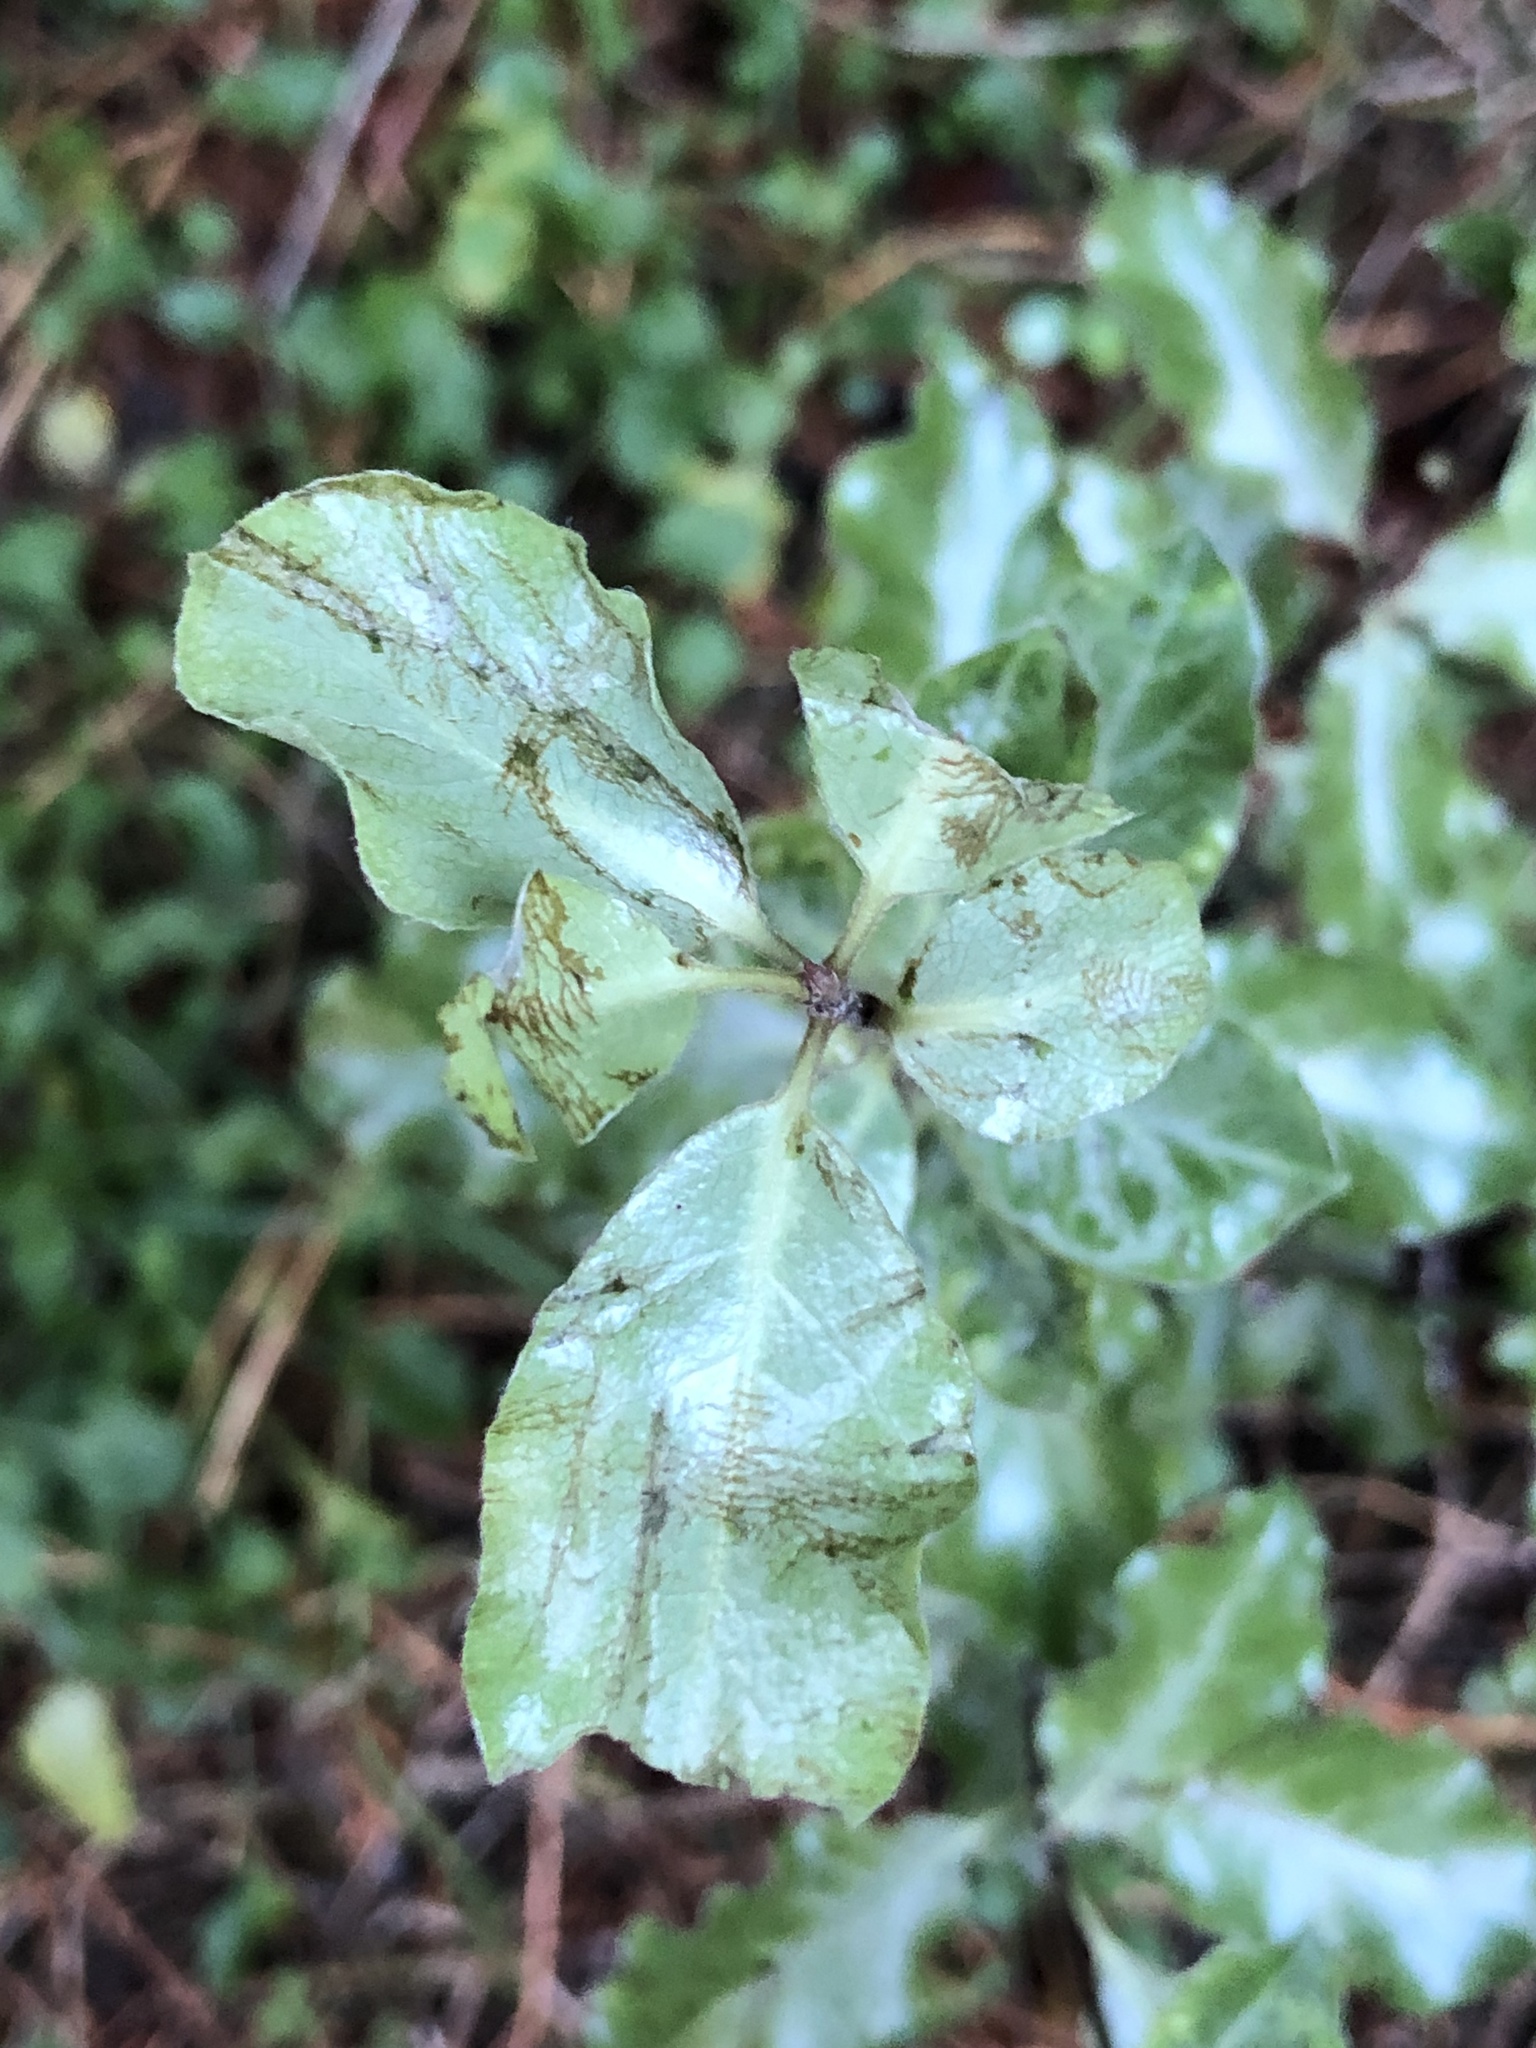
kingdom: Plantae
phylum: Tracheophyta
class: Magnoliopsida
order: Apiales
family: Pittosporaceae
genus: Pittosporum
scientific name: Pittosporum tenuifolium
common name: Kohuhu
